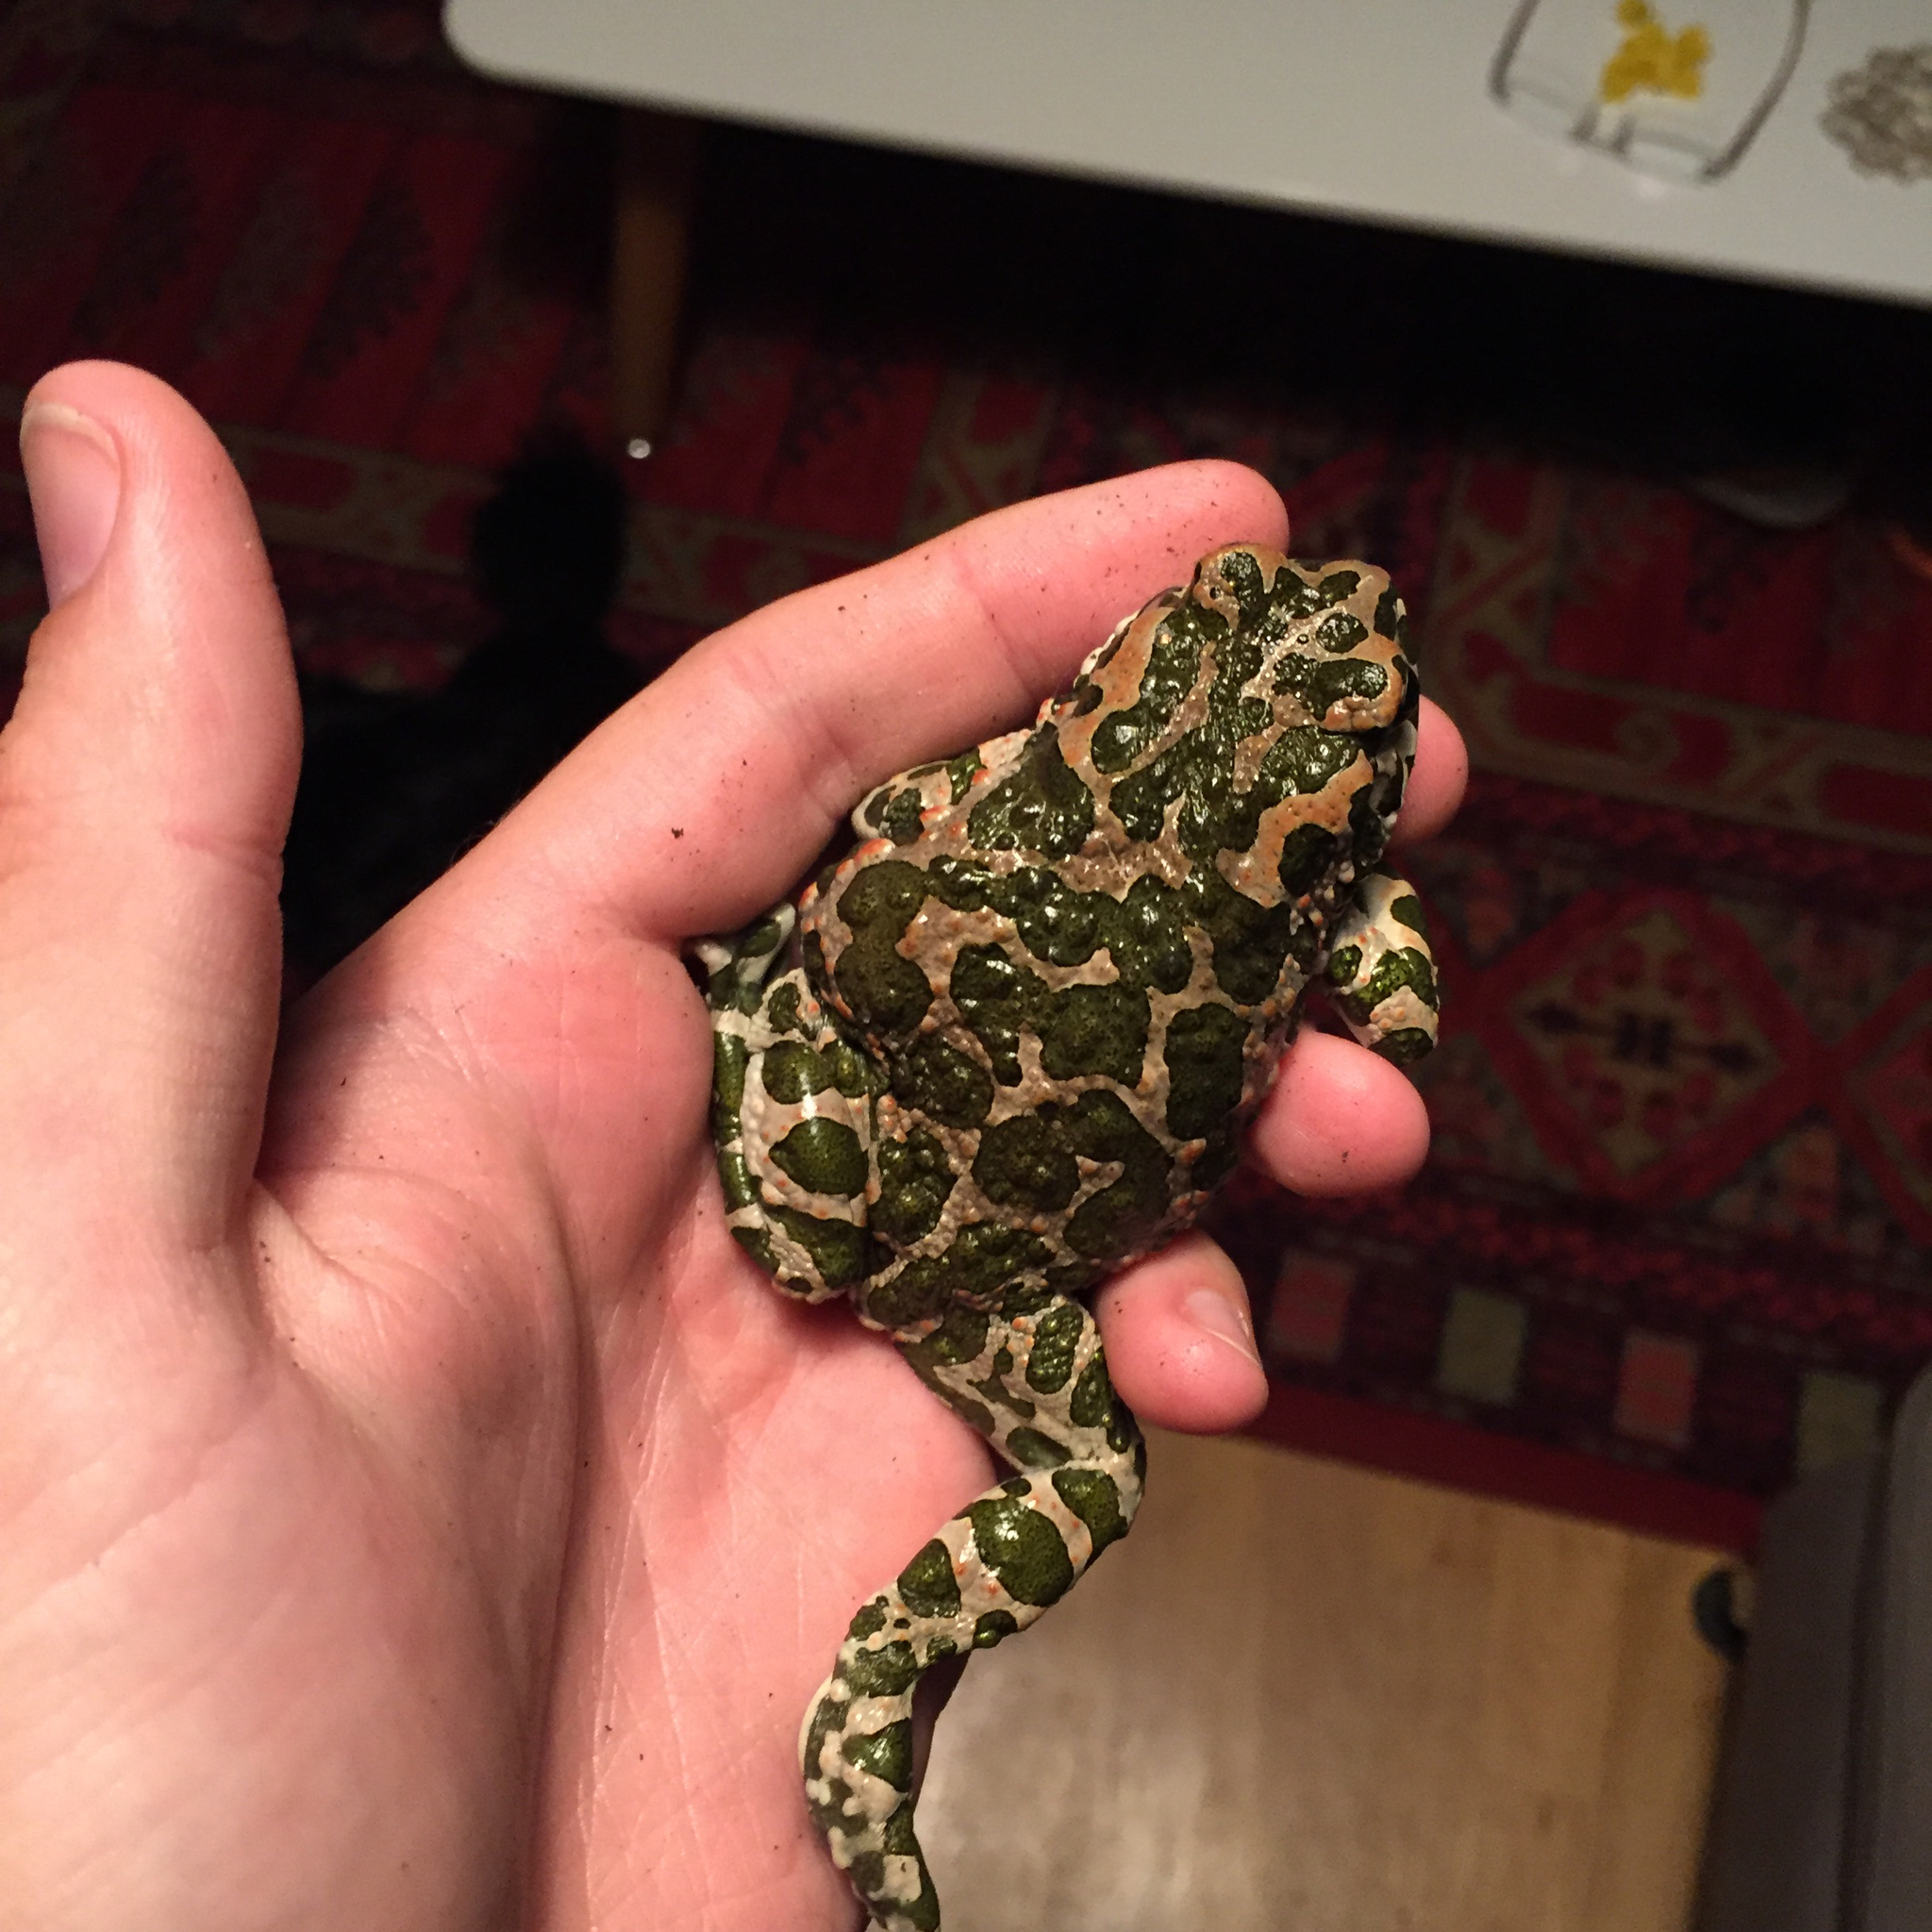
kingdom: Animalia
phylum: Chordata
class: Amphibia
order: Anura
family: Bufonidae
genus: Bufotes
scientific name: Bufotes viridis
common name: European green toad
